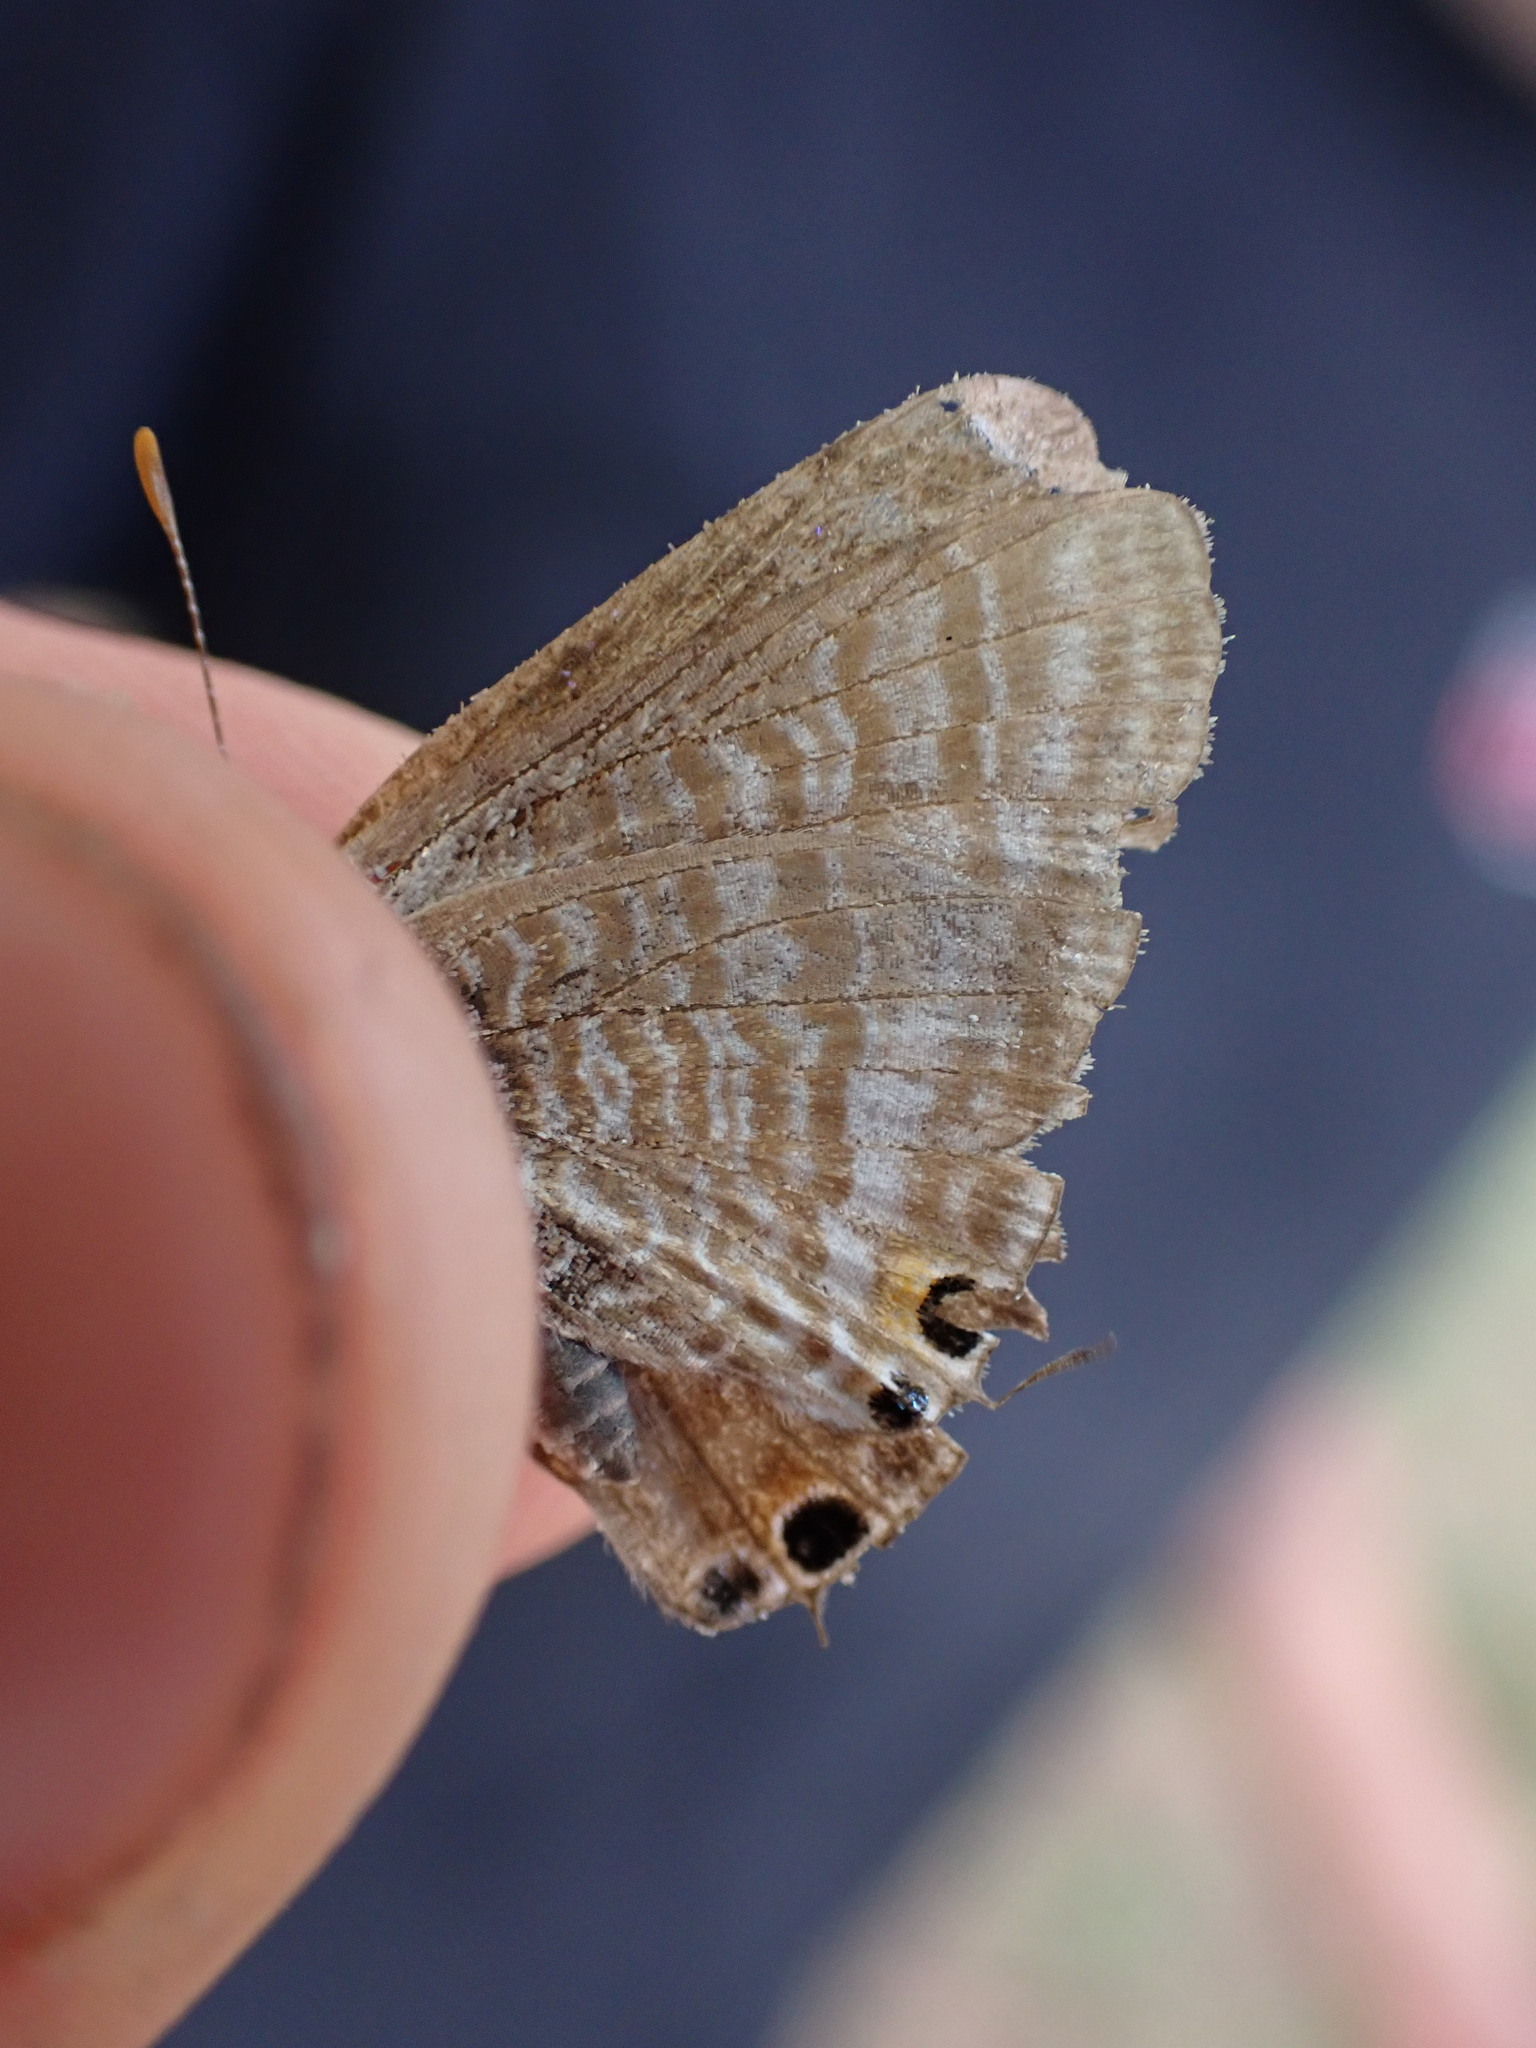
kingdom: Animalia
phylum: Arthropoda
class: Insecta
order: Lepidoptera
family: Lycaenidae
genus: Lampides
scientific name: Lampides boeticus
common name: Long-tailed blue
